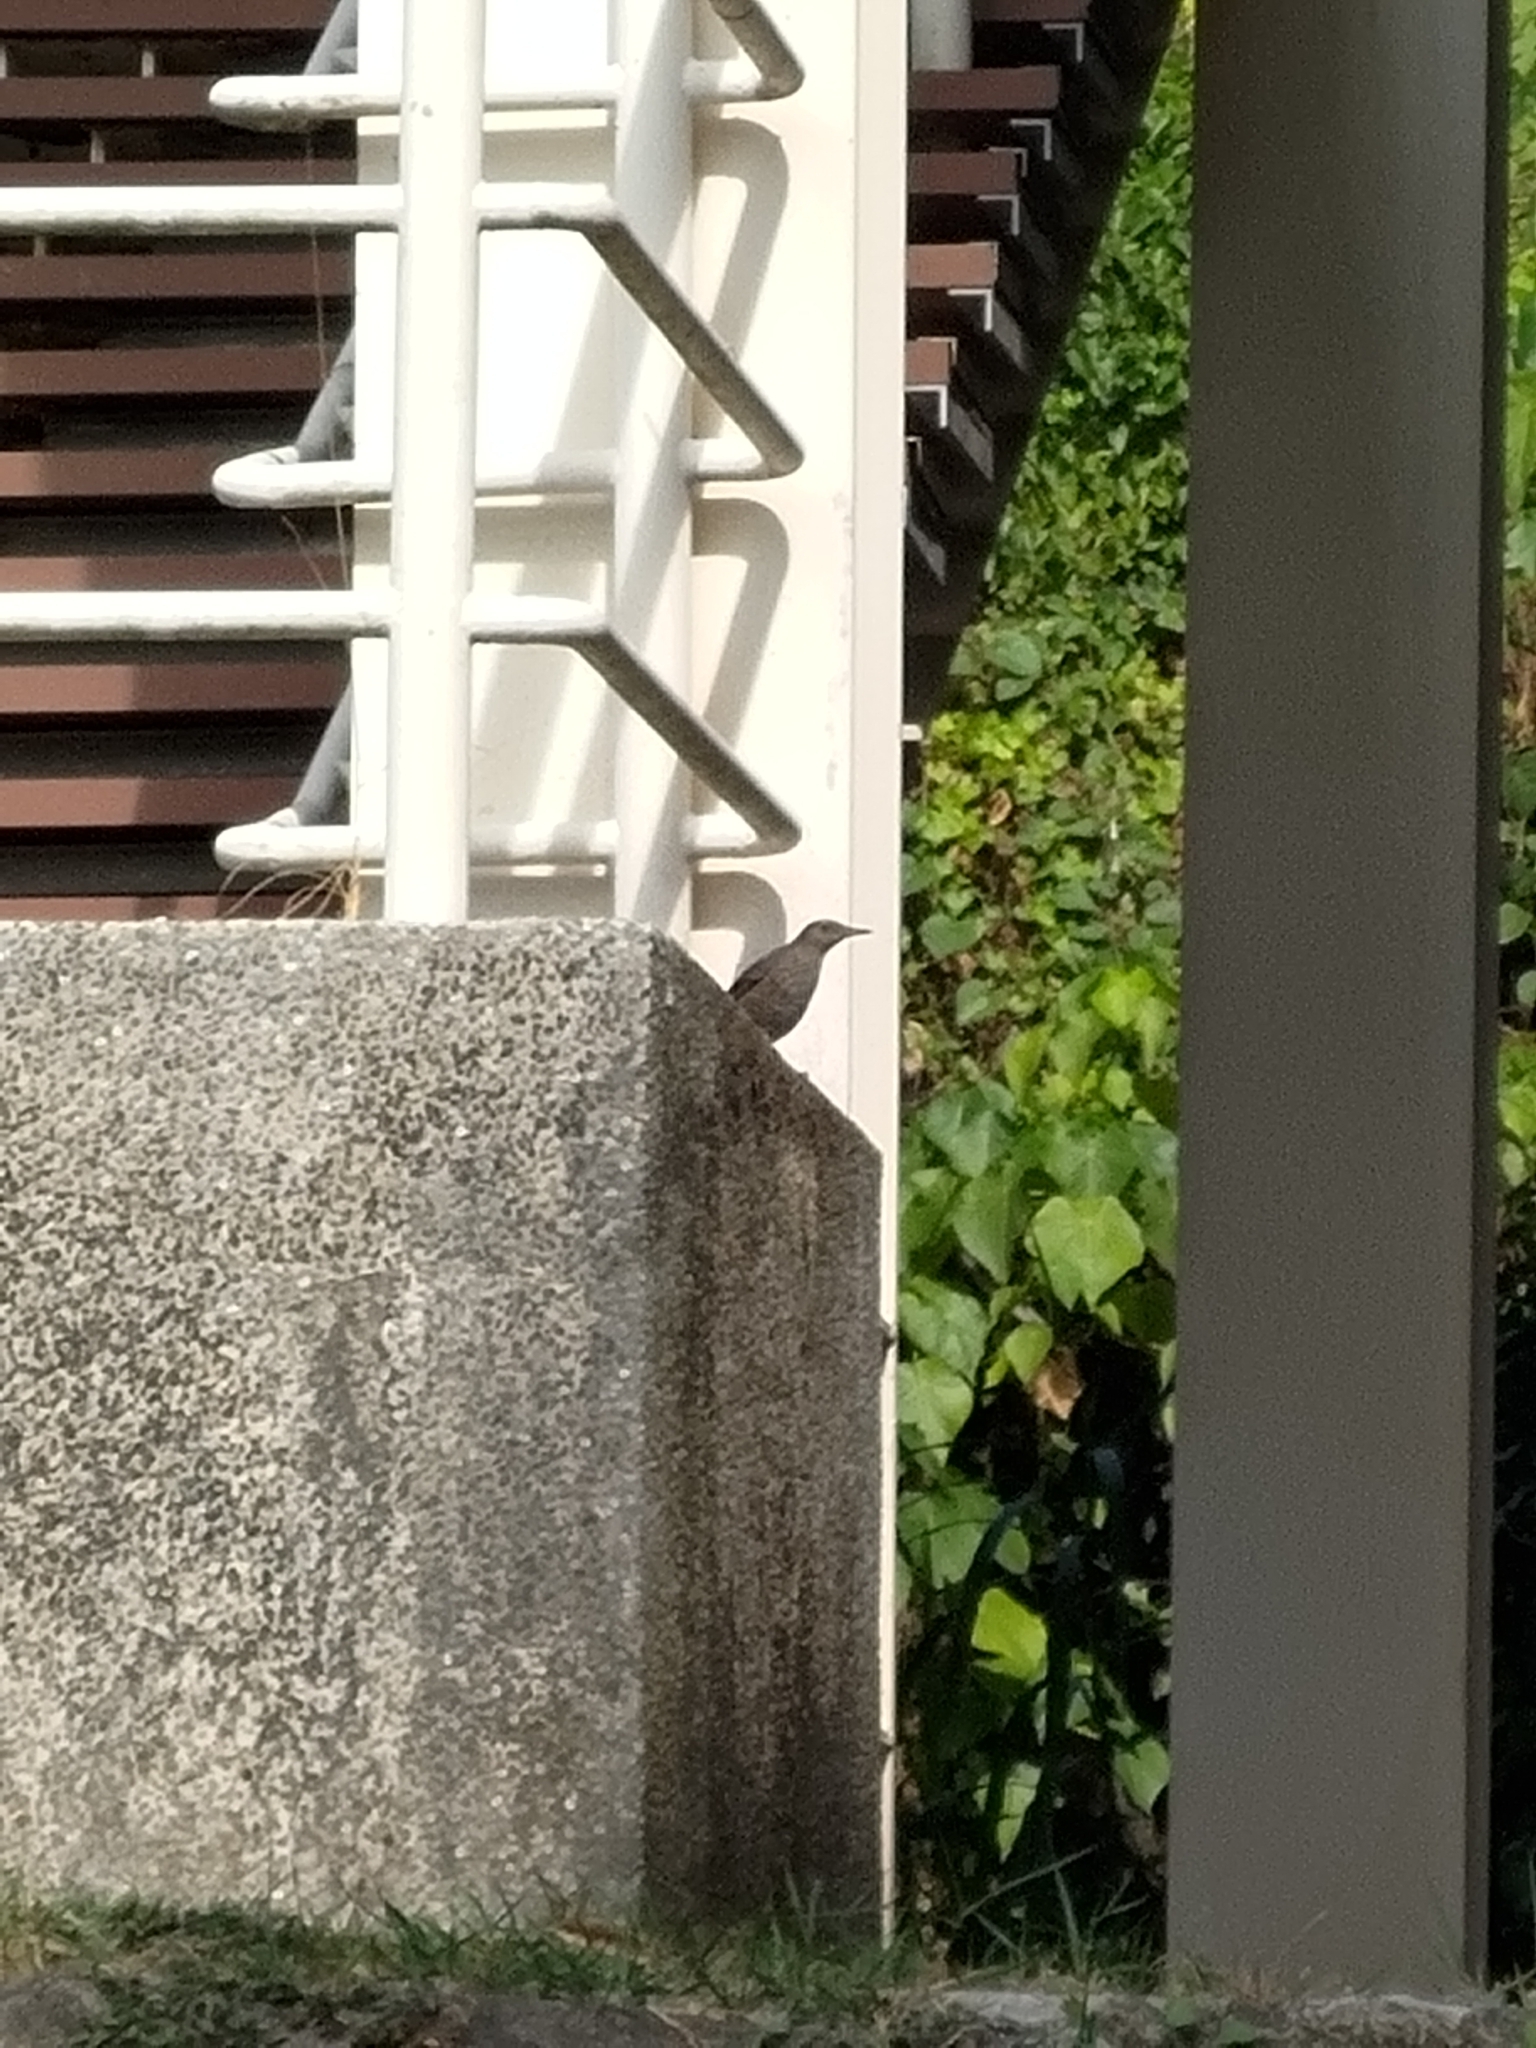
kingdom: Animalia
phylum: Chordata
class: Aves
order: Passeriformes
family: Muscicapidae
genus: Monticola
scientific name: Monticola solitarius
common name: Blue rock thrush
